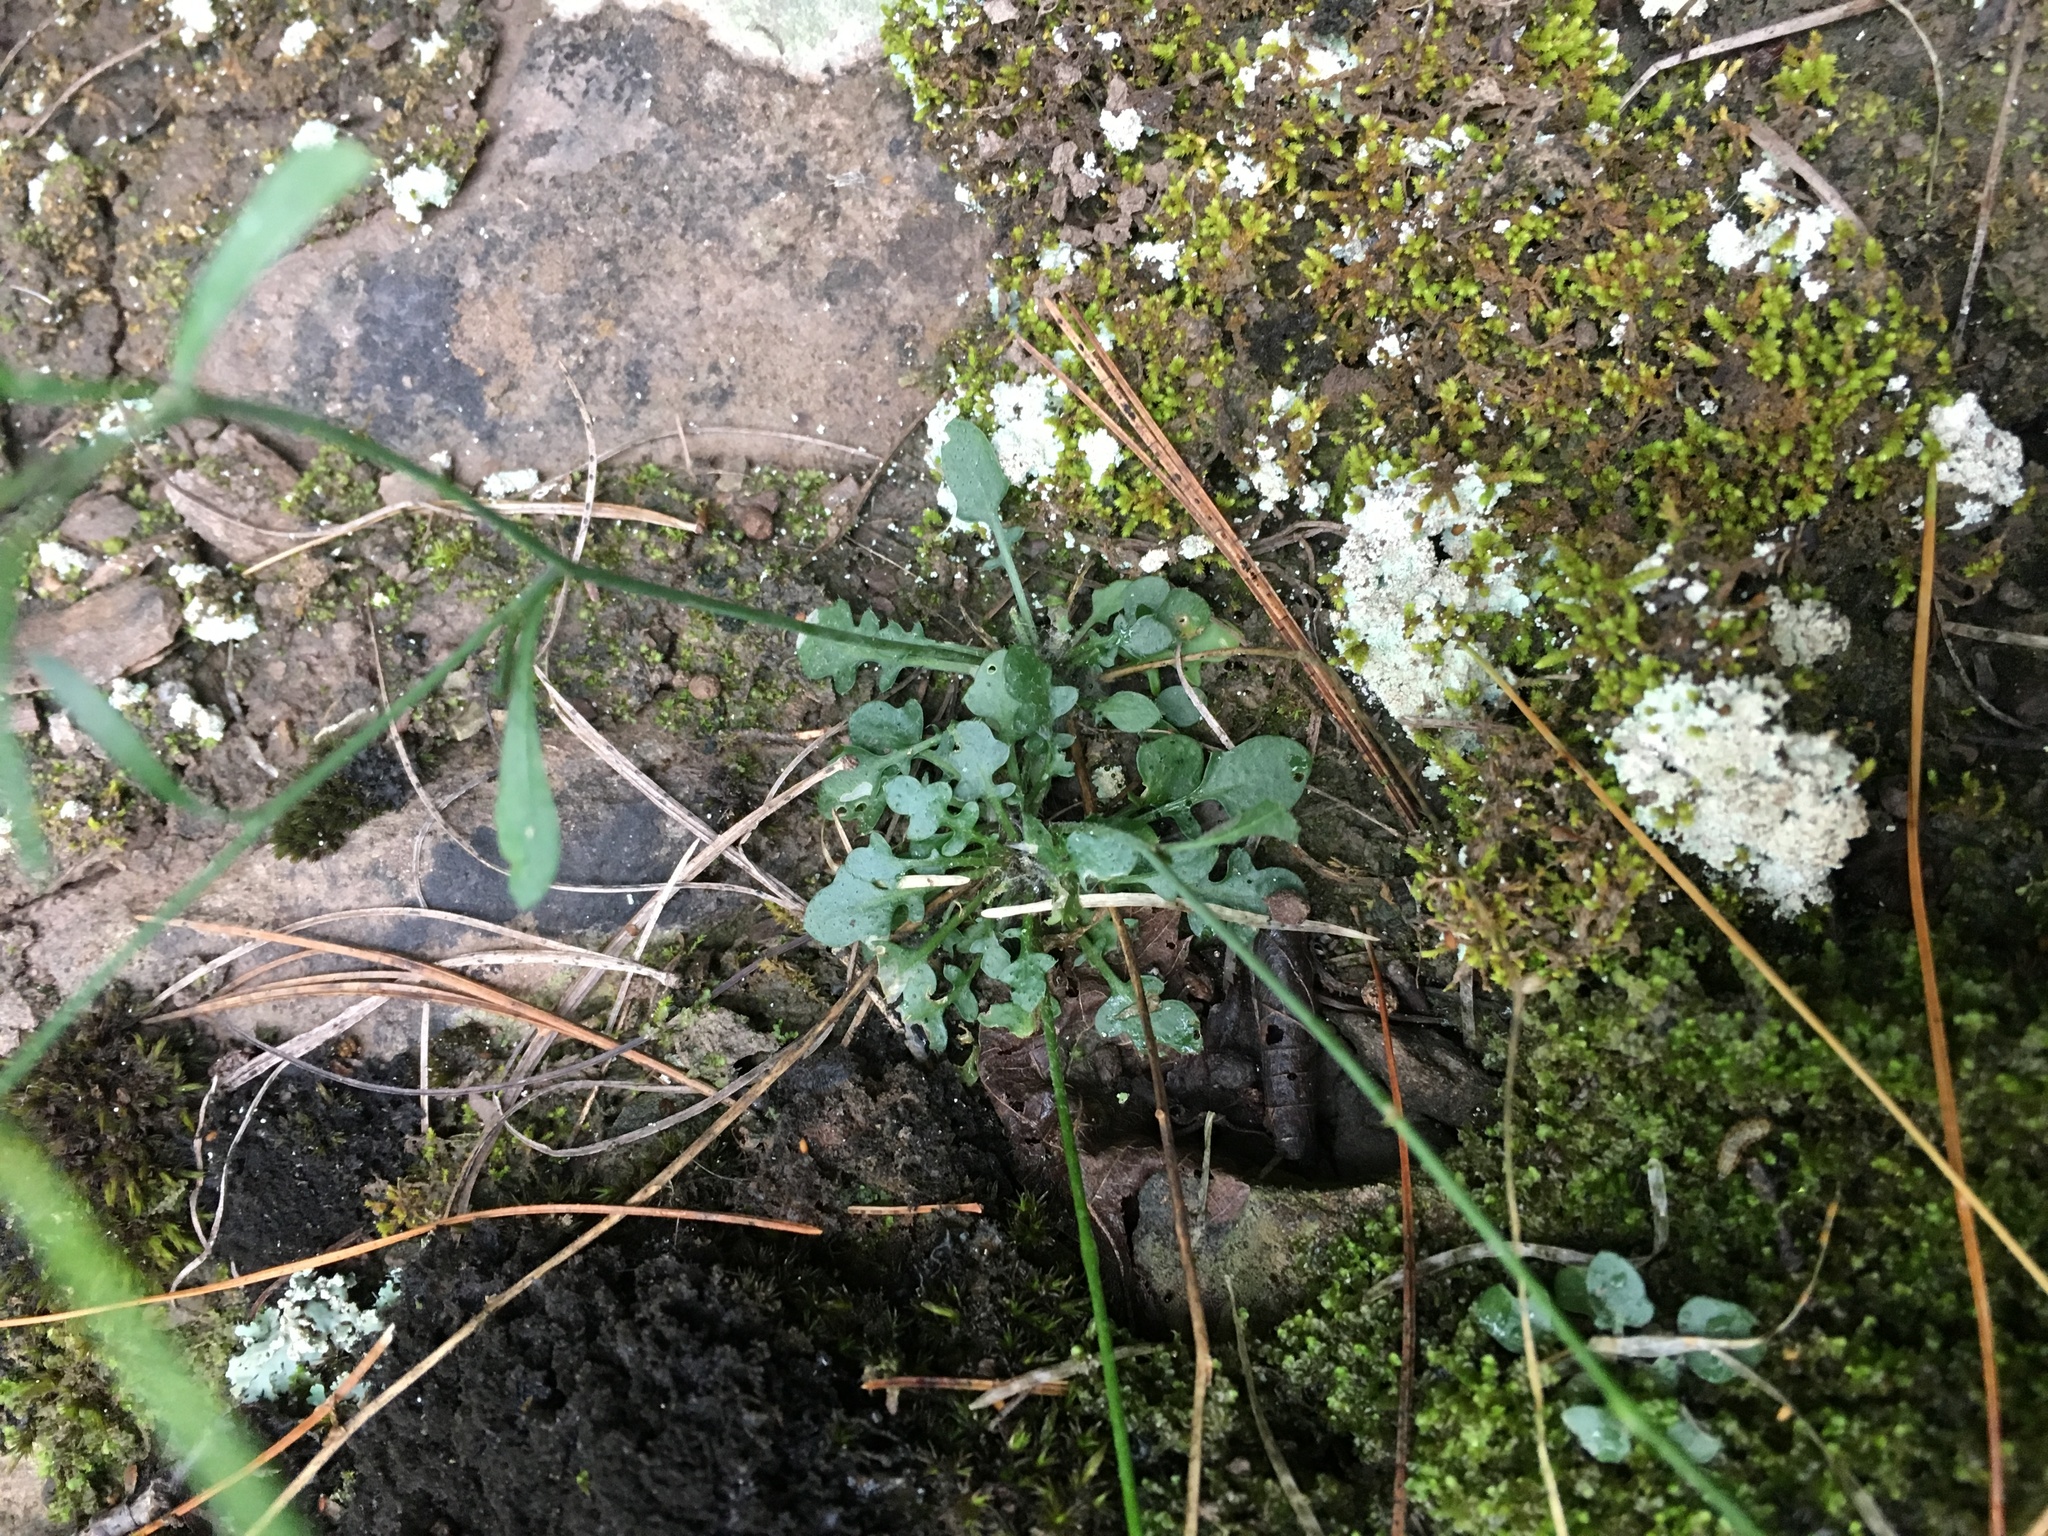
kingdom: Plantae
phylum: Tracheophyta
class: Magnoliopsida
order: Brassicales
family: Brassicaceae
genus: Arabidopsis
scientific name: Arabidopsis lyrata
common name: Lyrate rockcress
